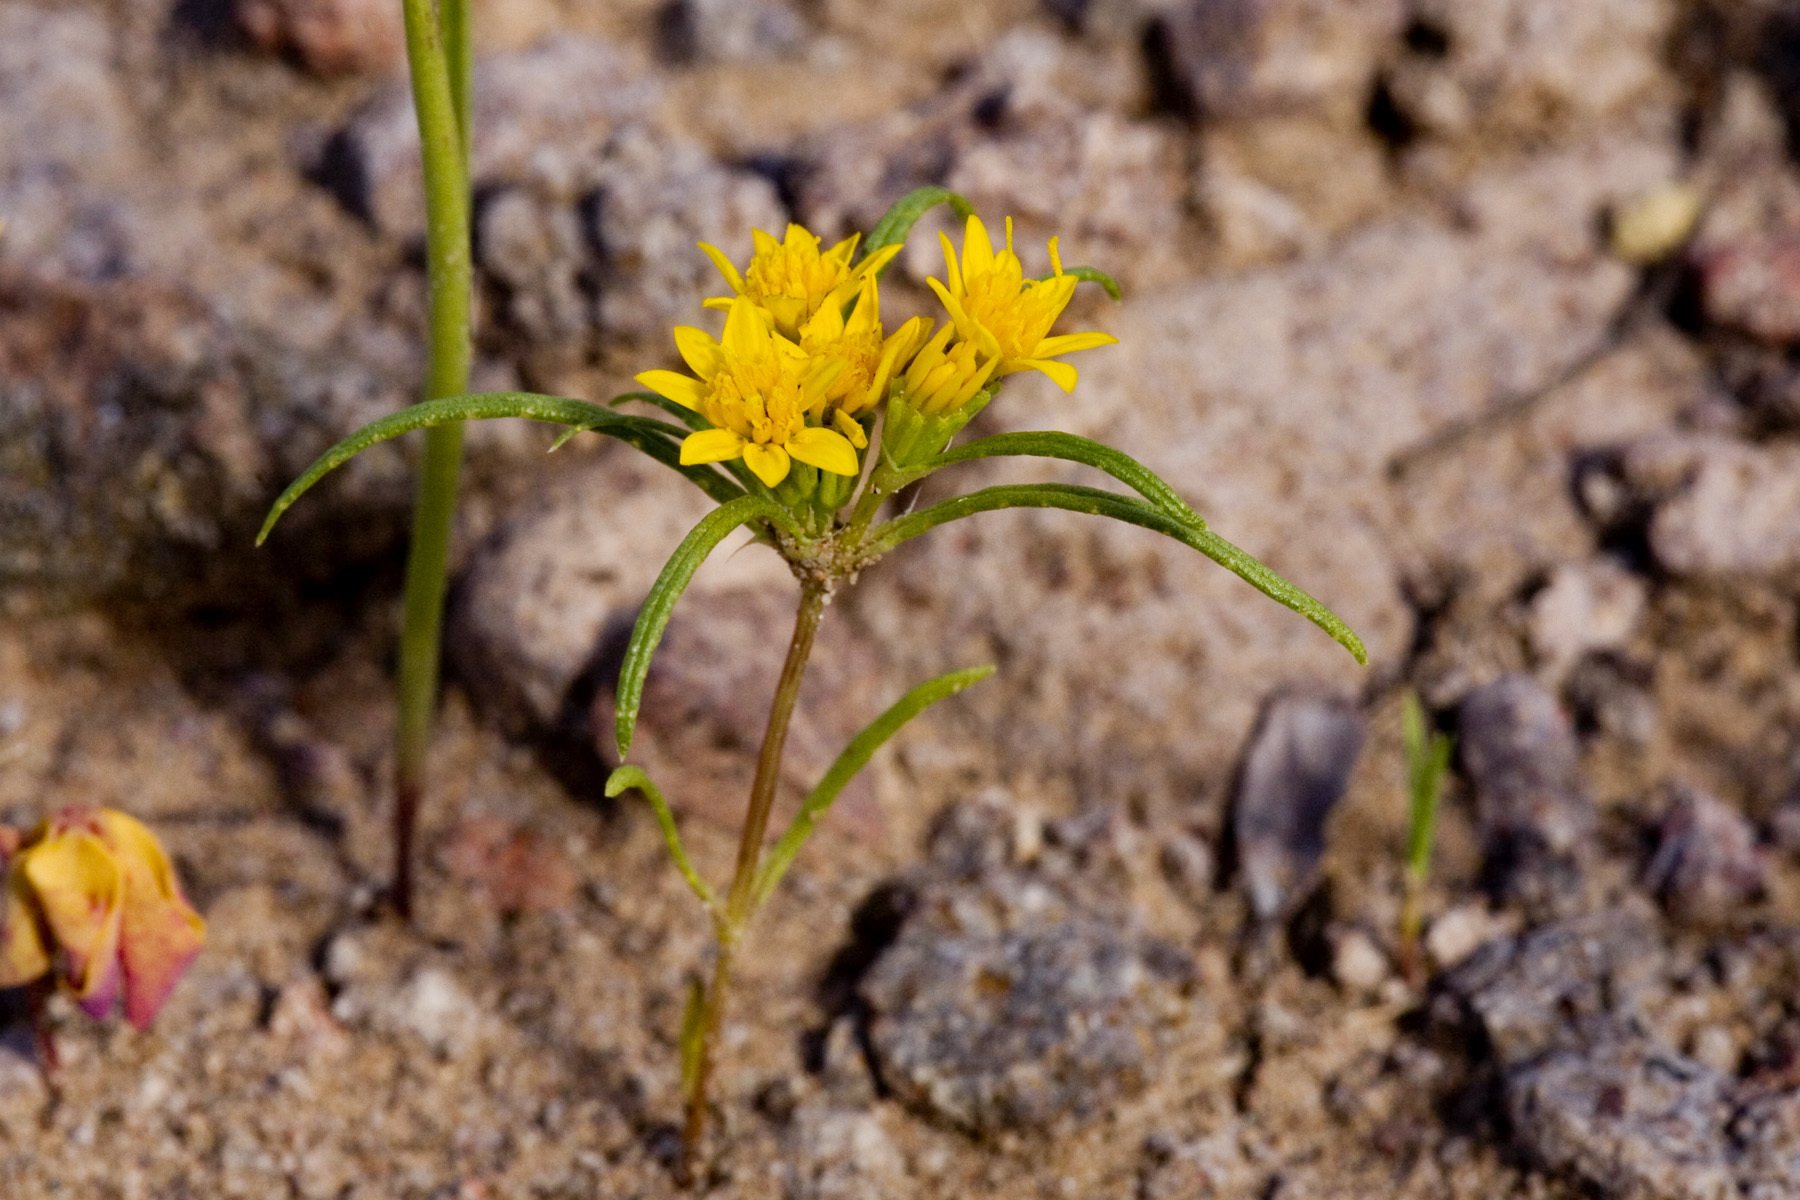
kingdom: Plantae
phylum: Tracheophyta
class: Magnoliopsida
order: Asterales
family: Asteraceae
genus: Pectis
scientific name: Pectis angustifolia
